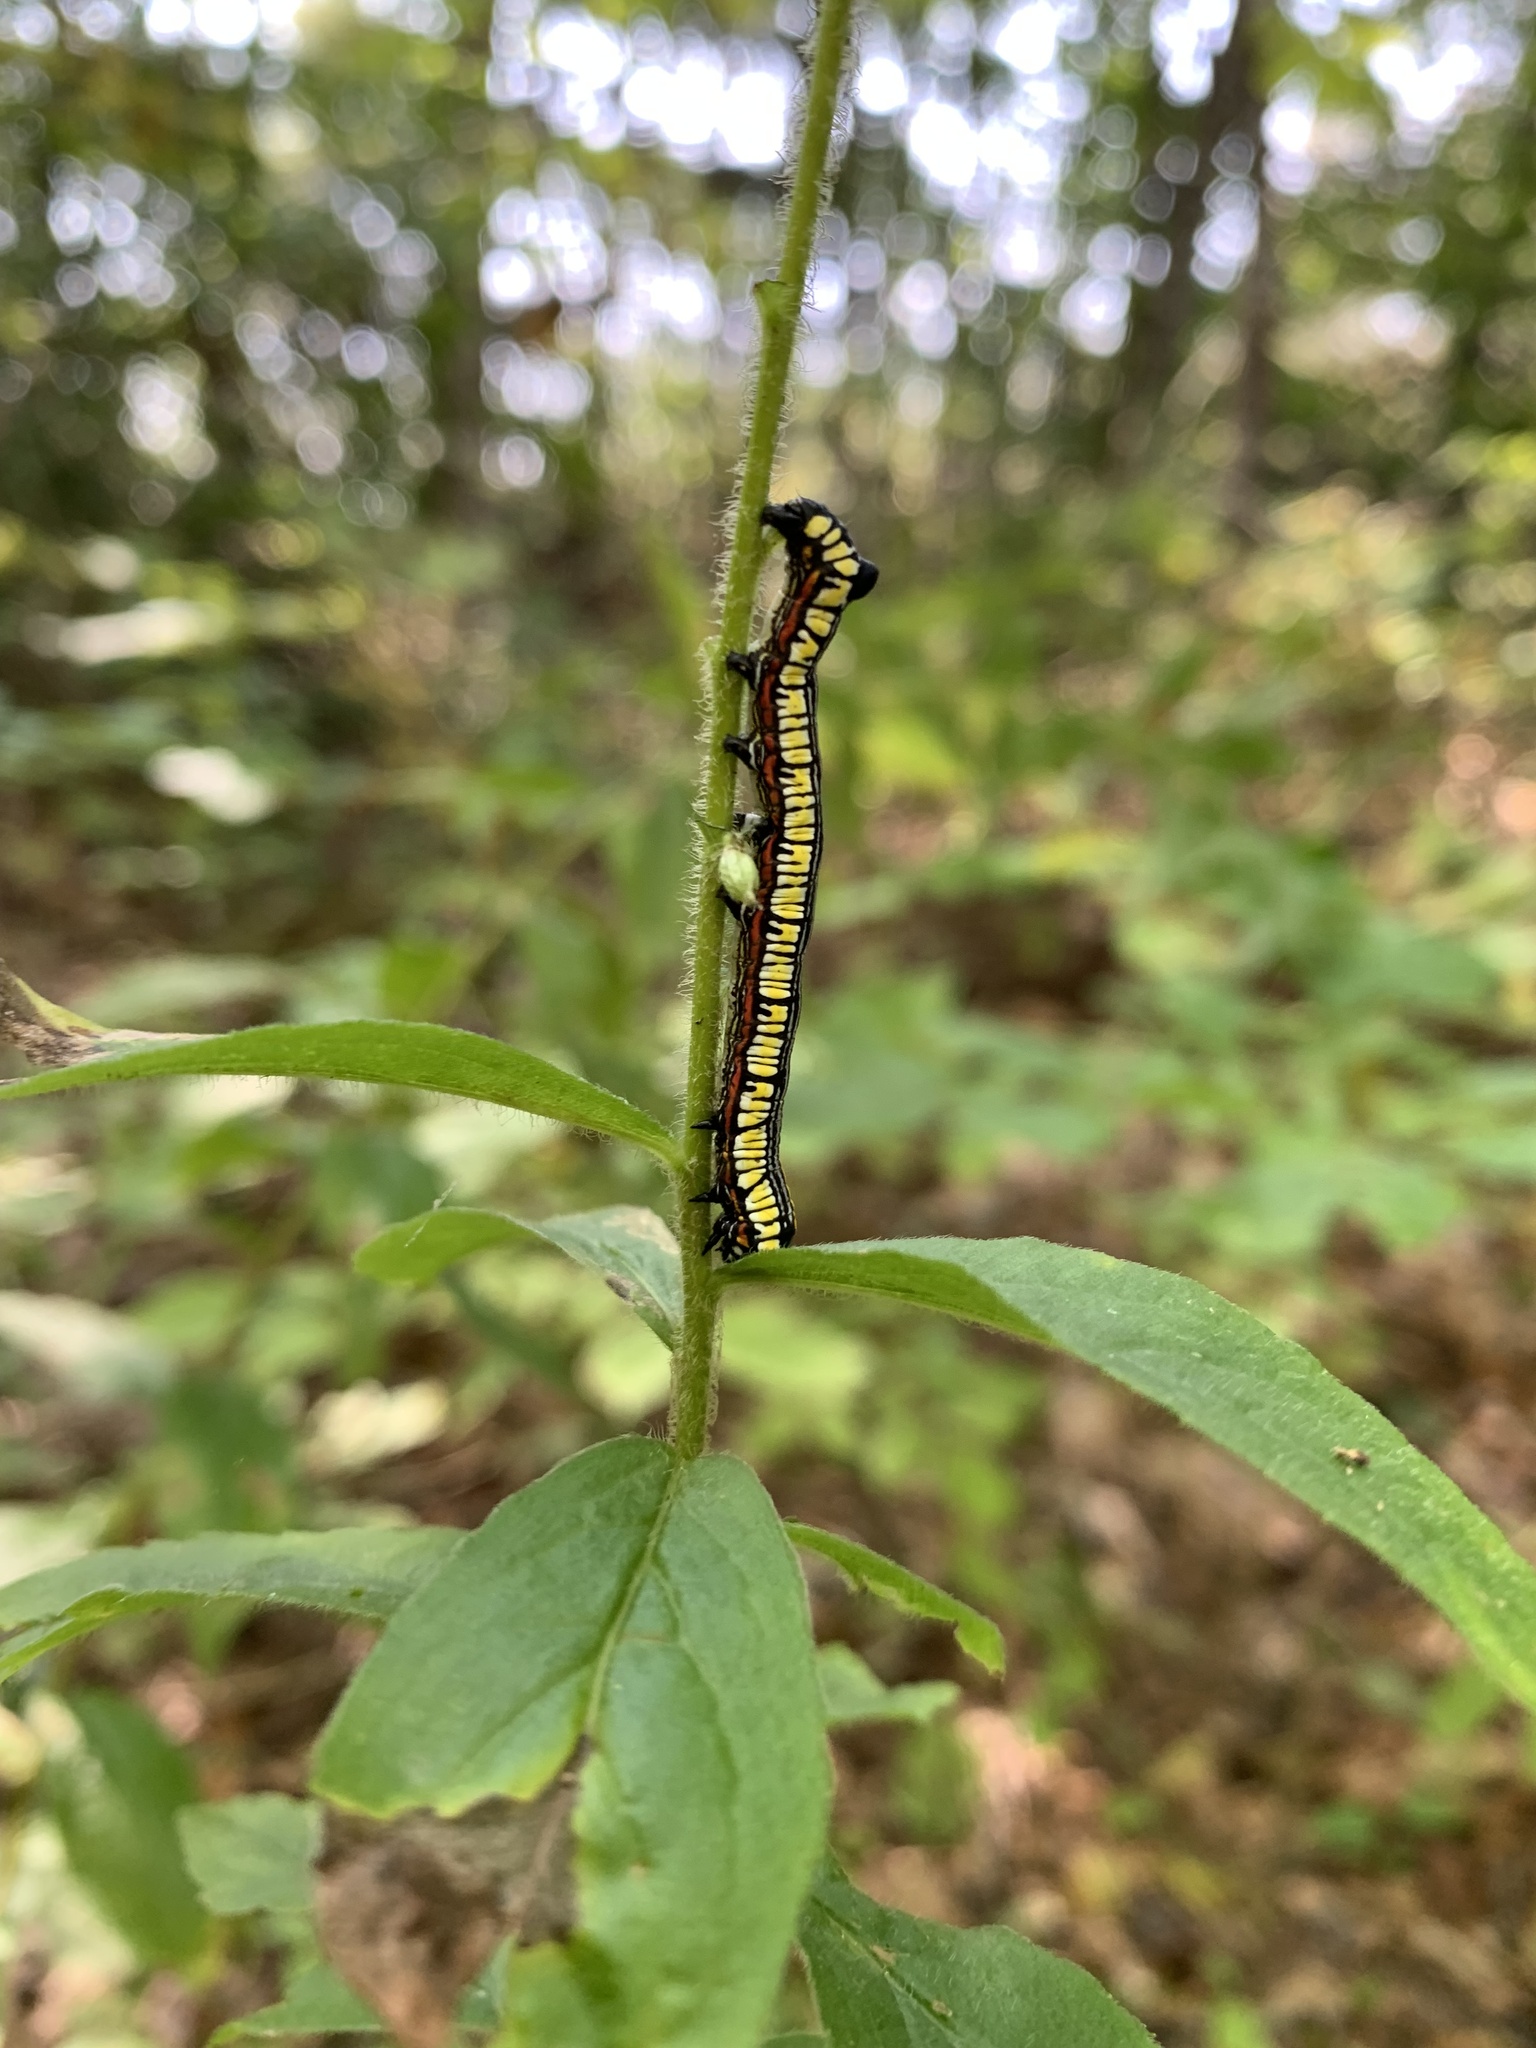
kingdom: Animalia
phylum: Arthropoda
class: Insecta
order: Lepidoptera
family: Noctuidae
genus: Cucullia
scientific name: Cucullia convexipennis
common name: Brown-hooded owlet
